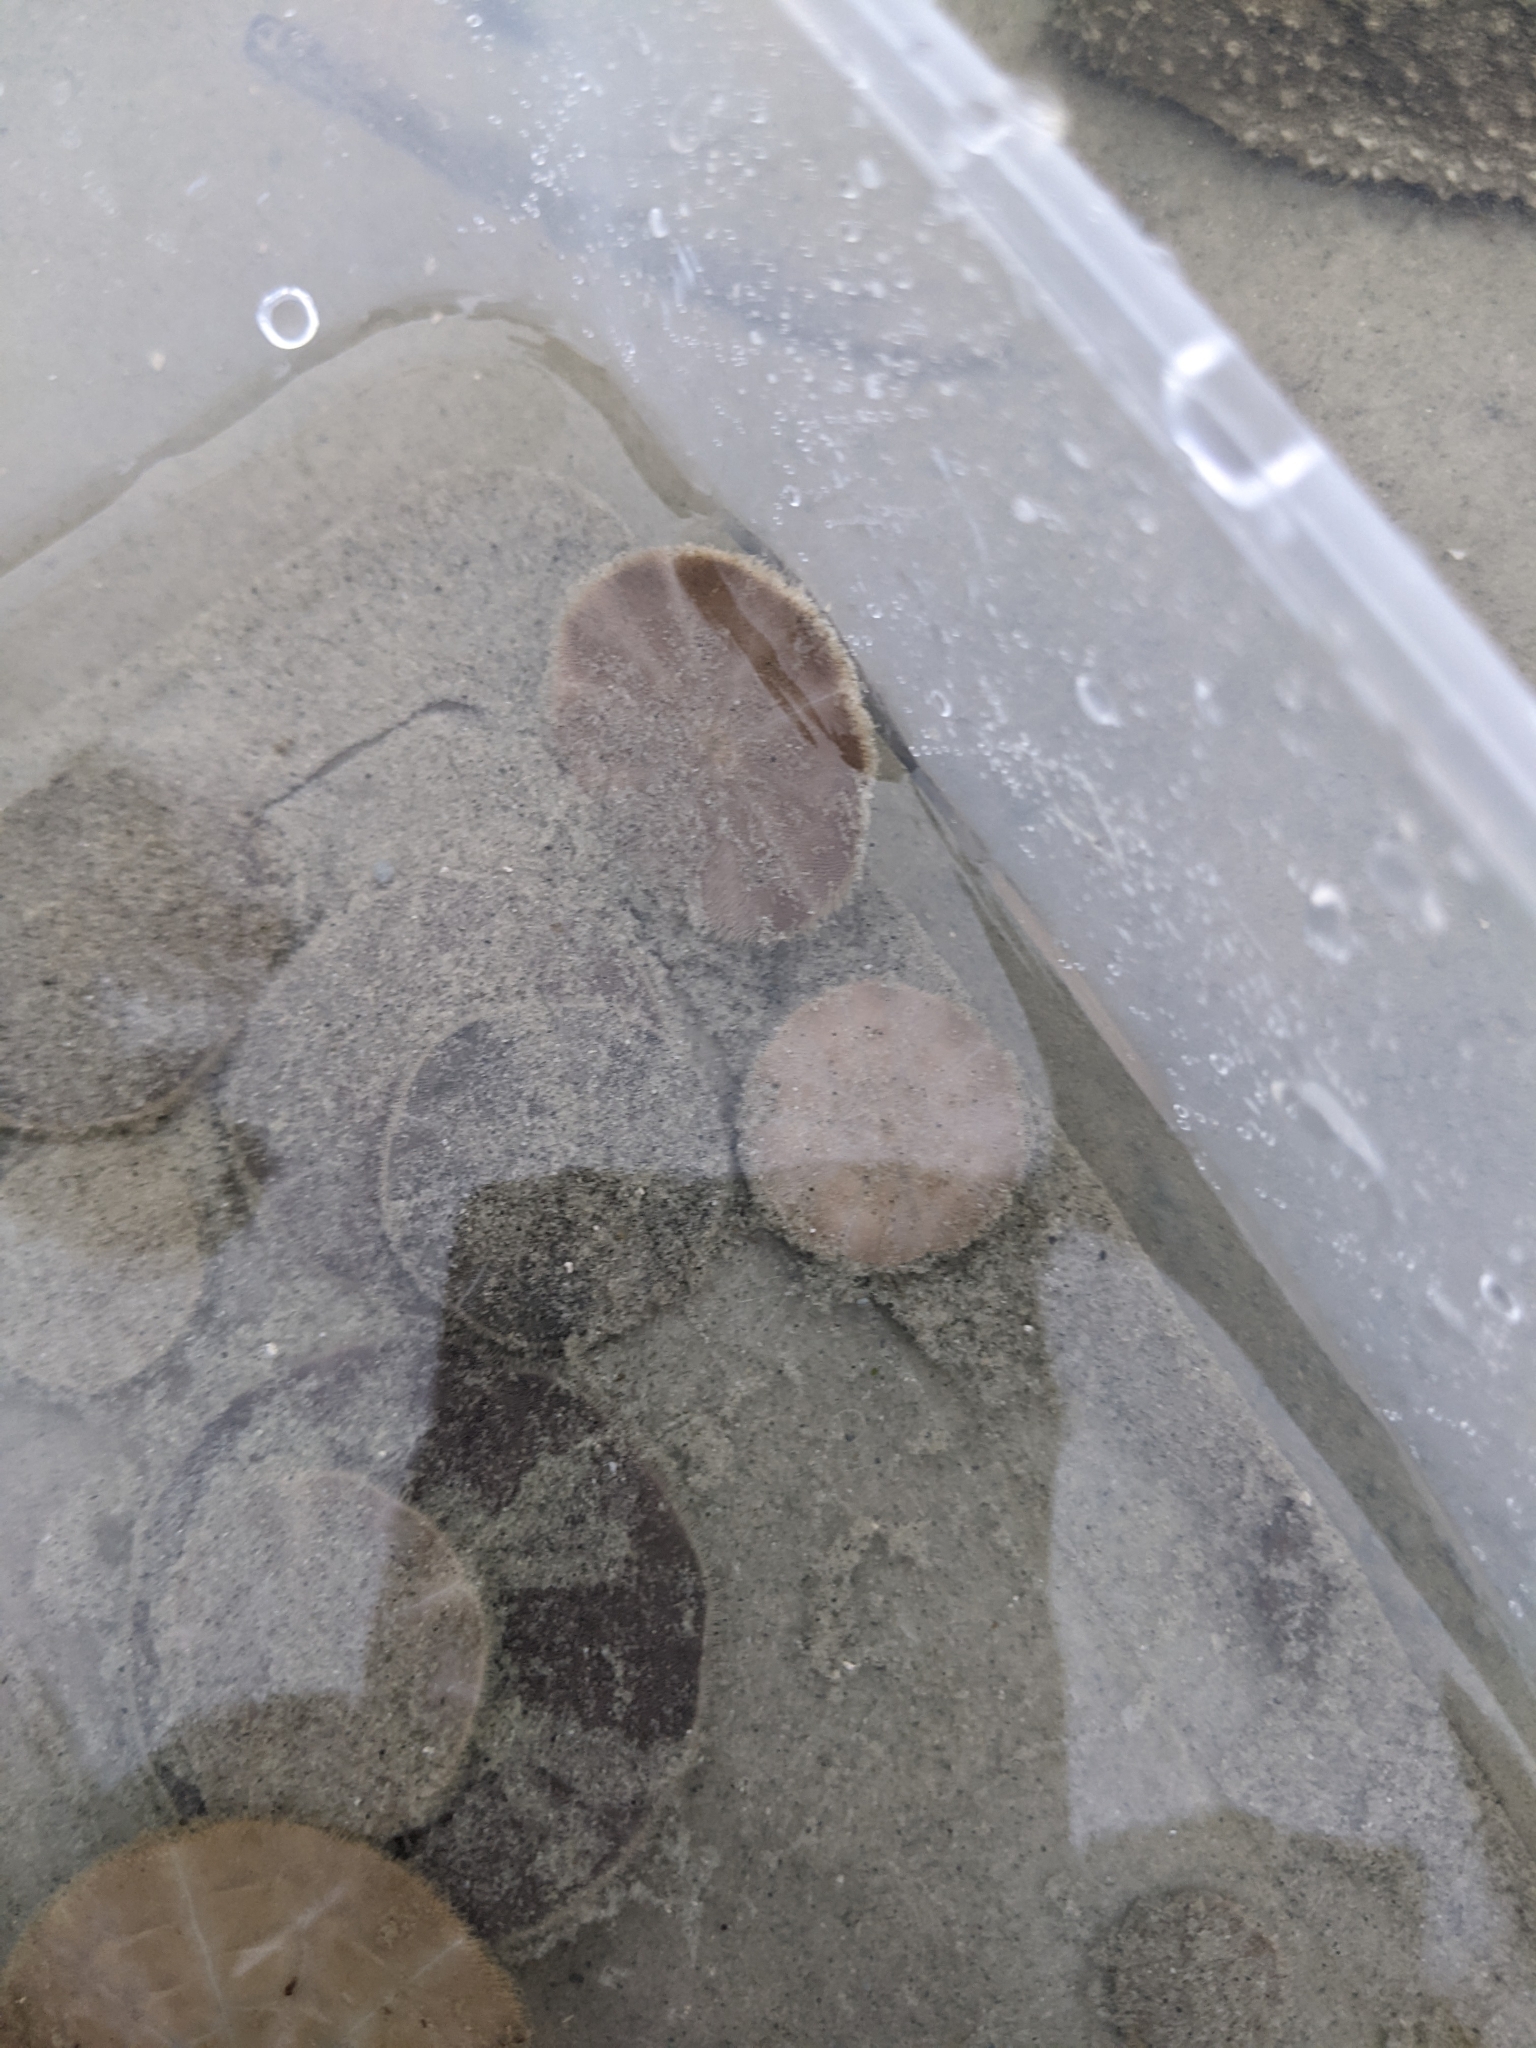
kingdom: Animalia
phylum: Echinodermata
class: Echinoidea
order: Clypeasteroida
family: Clypeasteridae
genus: Arachnoides
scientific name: Arachnoides placenta
